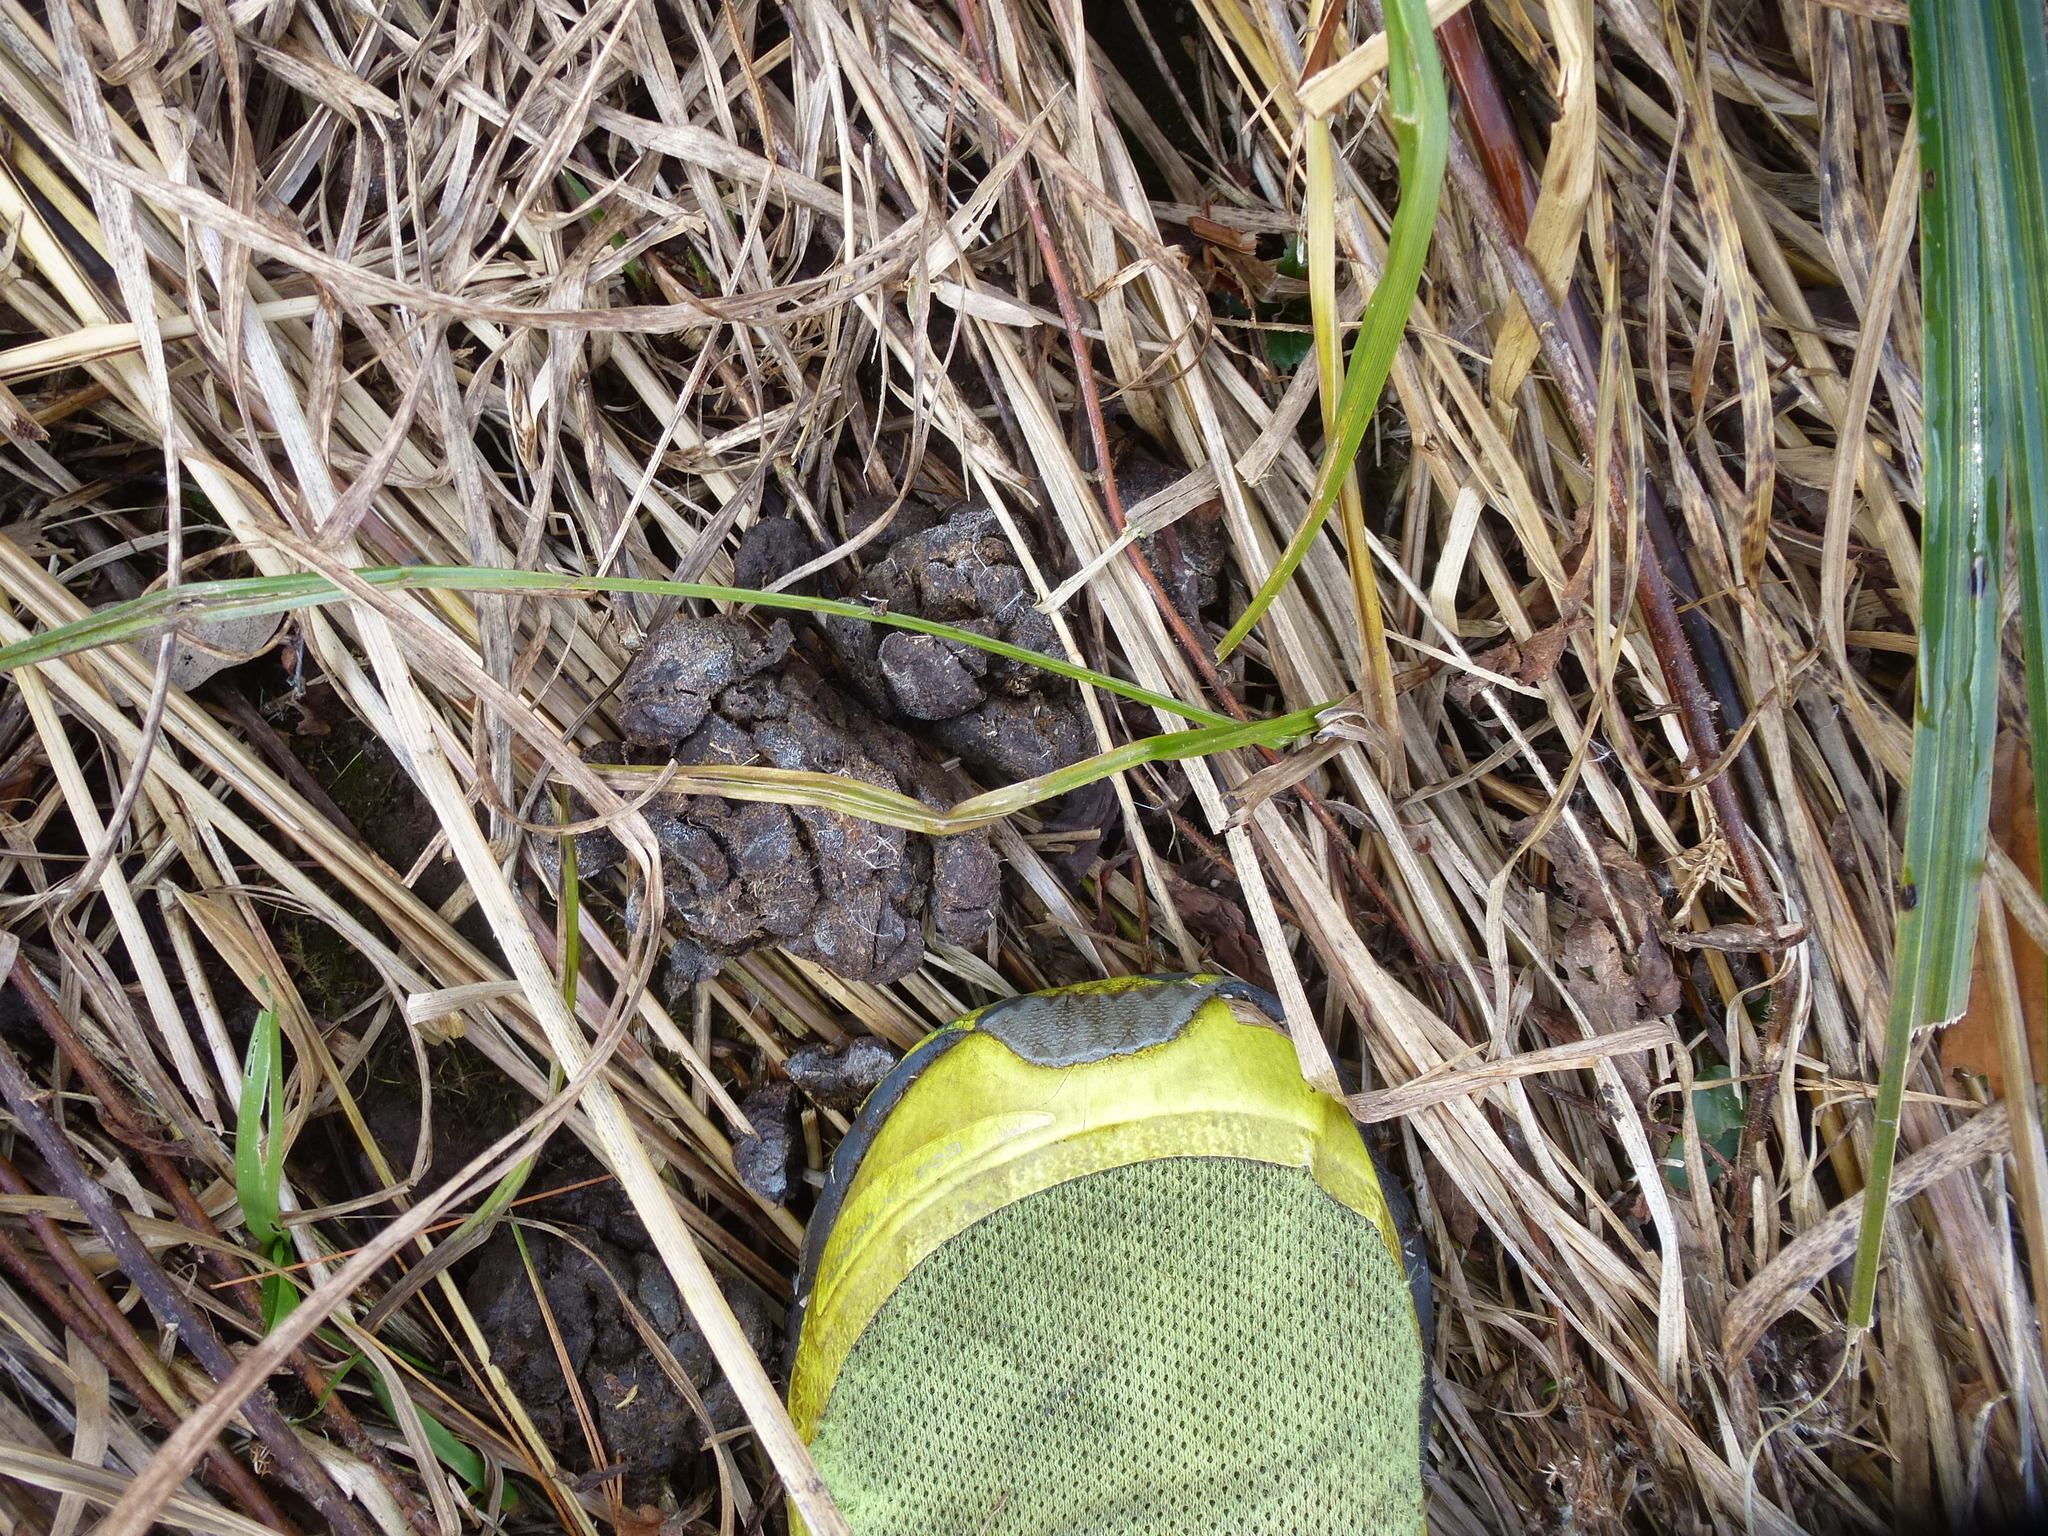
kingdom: Animalia
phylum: Chordata
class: Mammalia
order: Artiodactyla
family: Cervidae
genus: Odocoileus
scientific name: Odocoileus virginianus
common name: White-tailed deer
